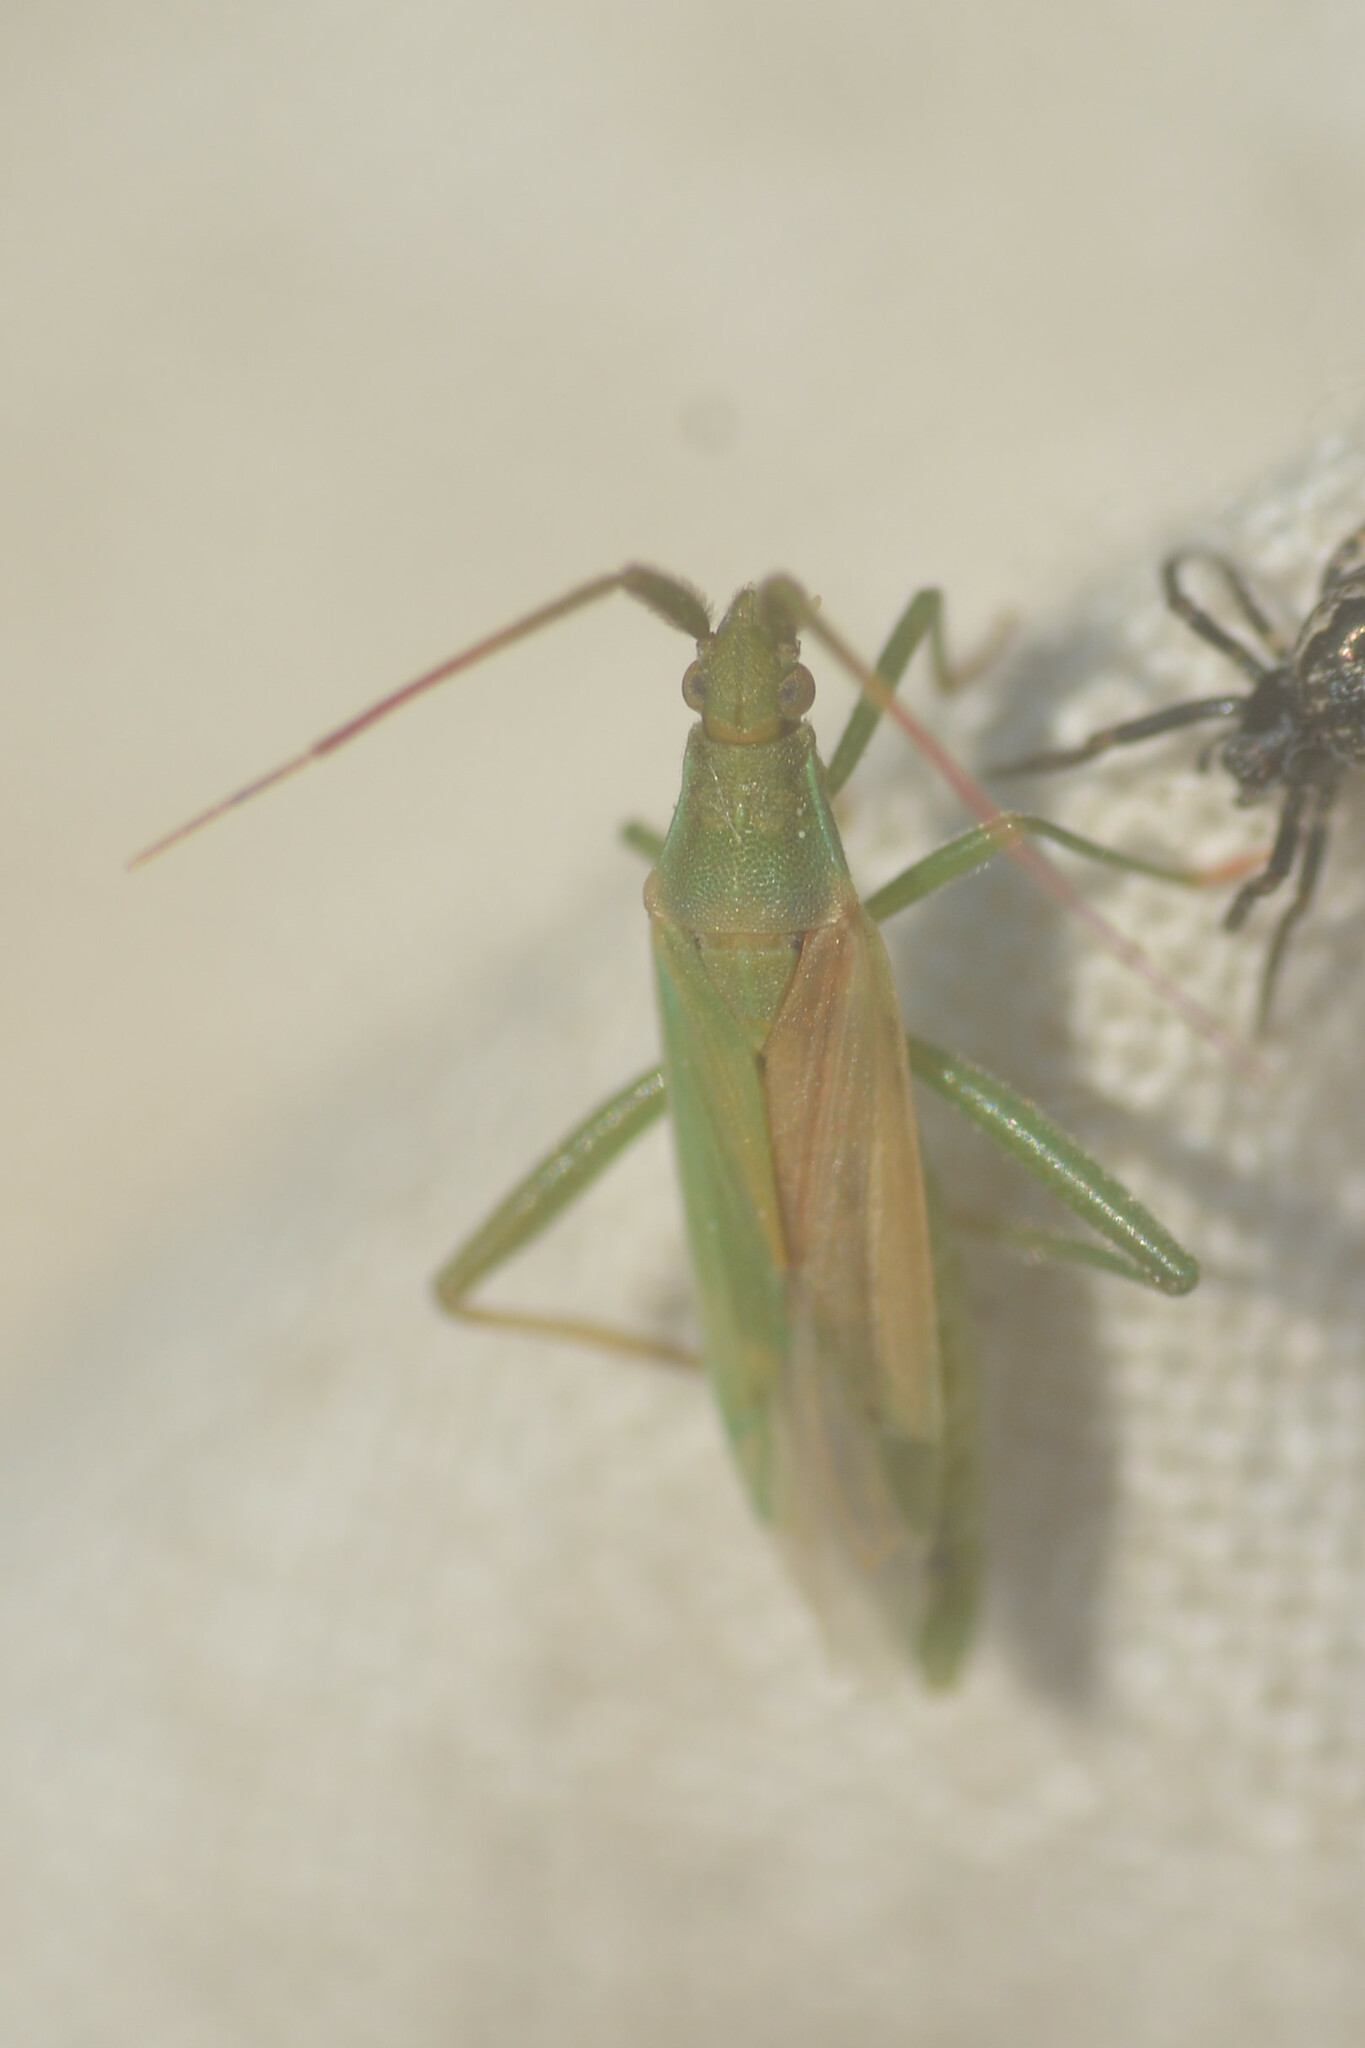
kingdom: Animalia
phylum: Arthropoda
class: Insecta
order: Hemiptera
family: Miridae
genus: Stenodema
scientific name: Stenodema laevigata
